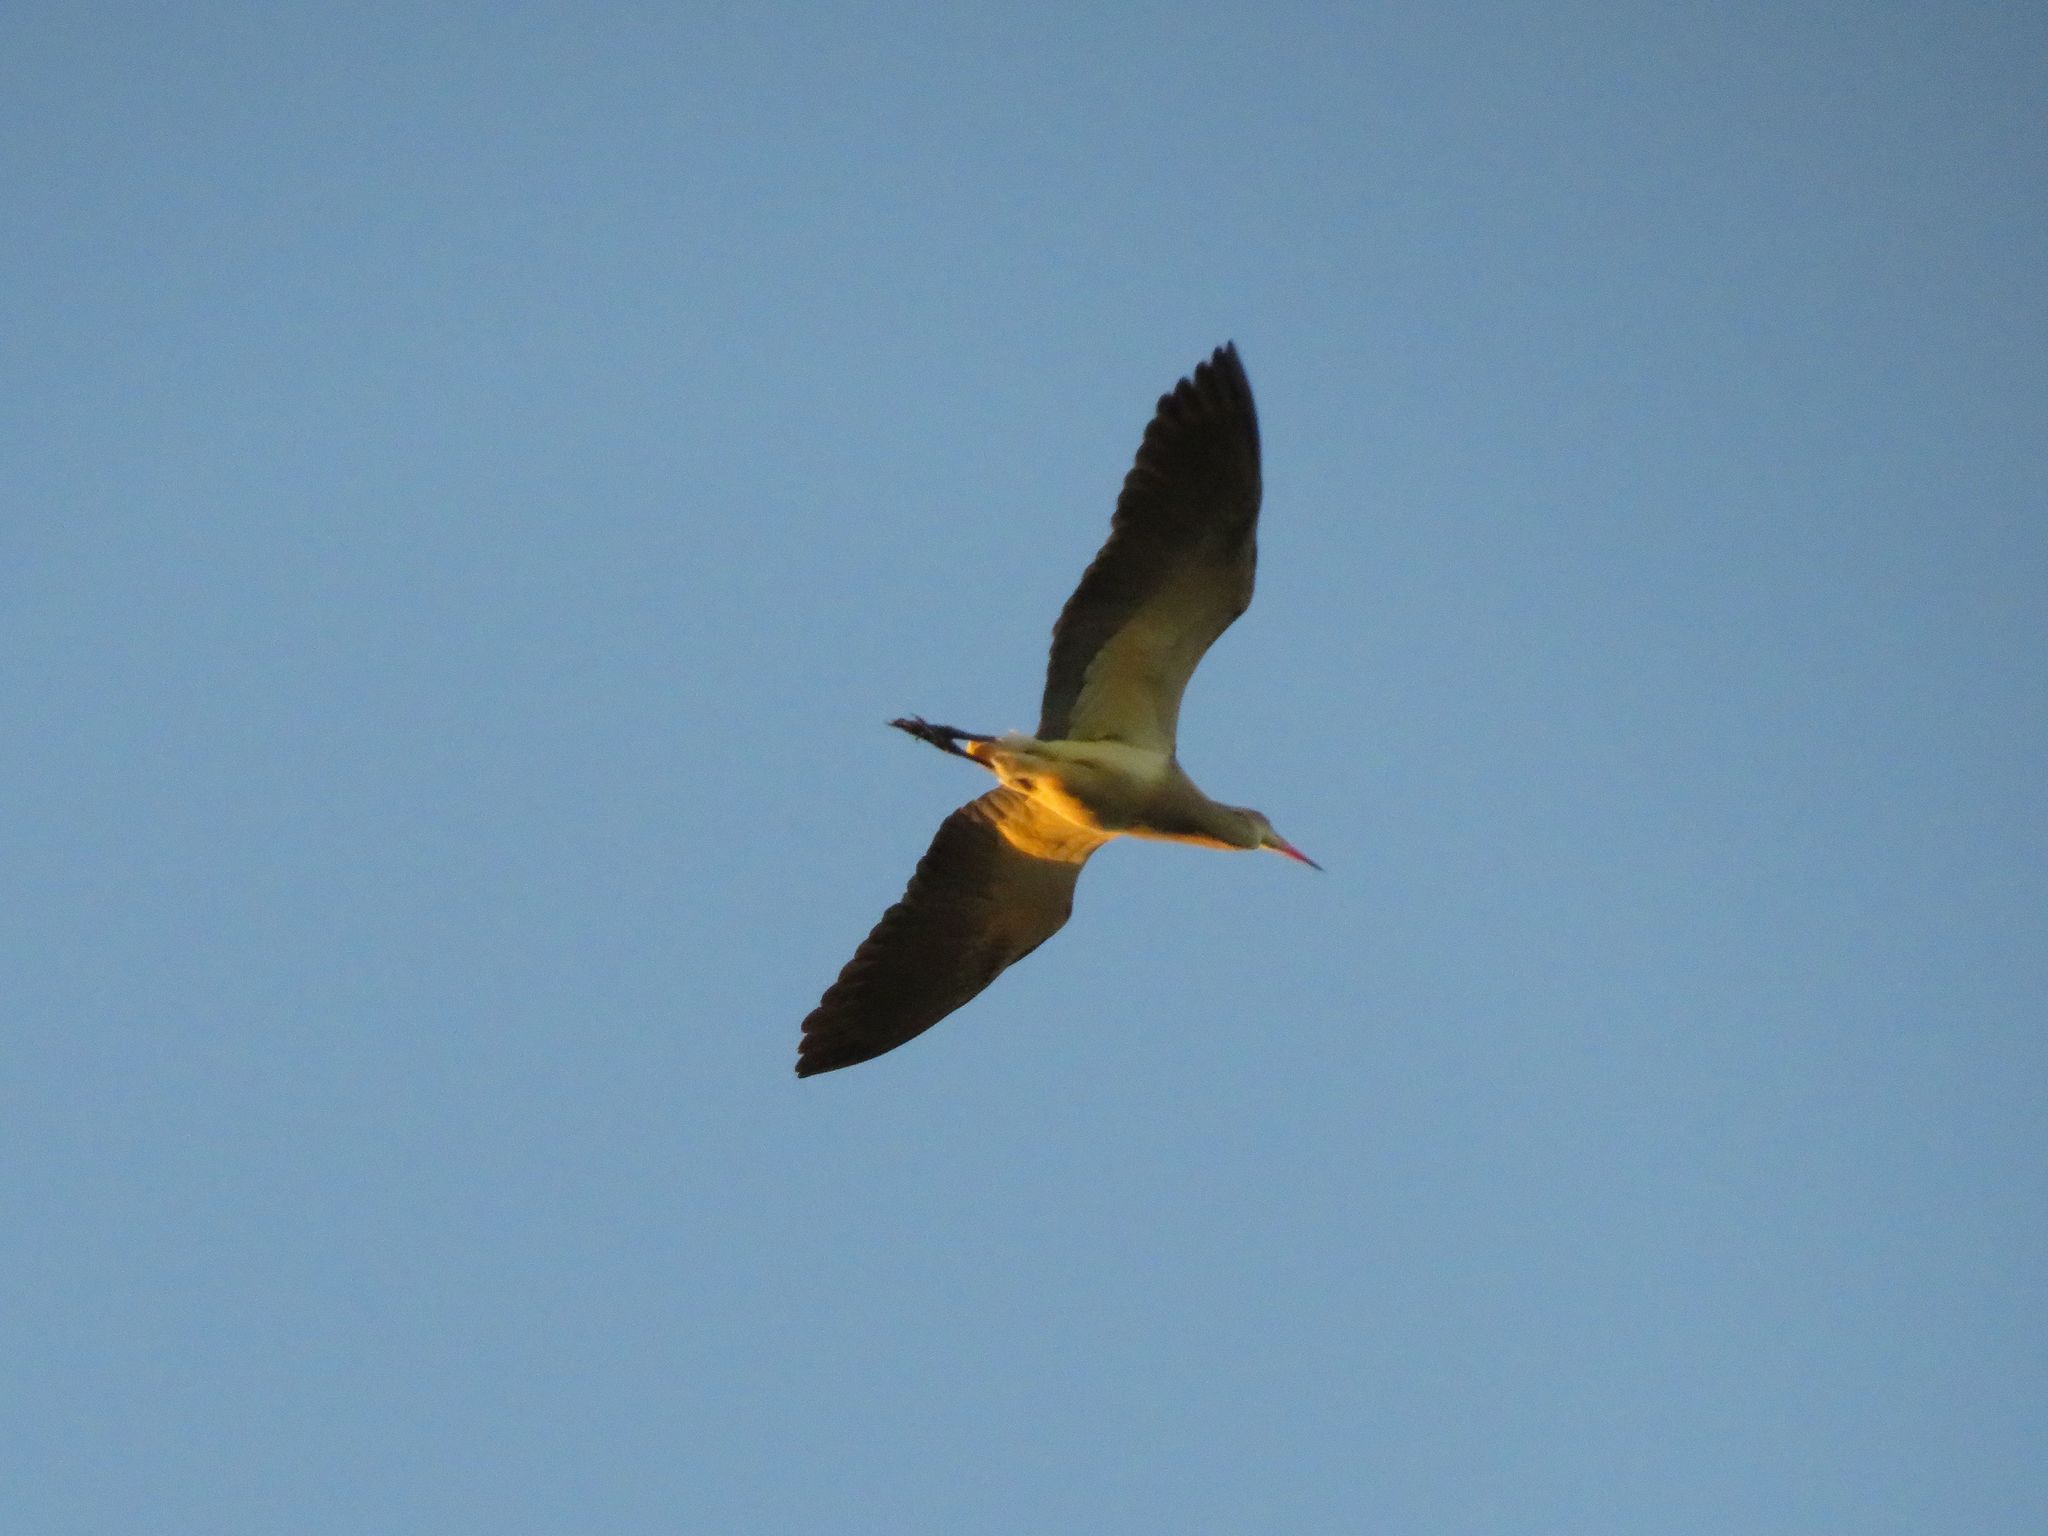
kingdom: Animalia
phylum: Chordata
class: Aves
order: Pelecaniformes
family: Ardeidae
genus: Syrigma
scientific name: Syrigma sibilatrix
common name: Whistling heron
